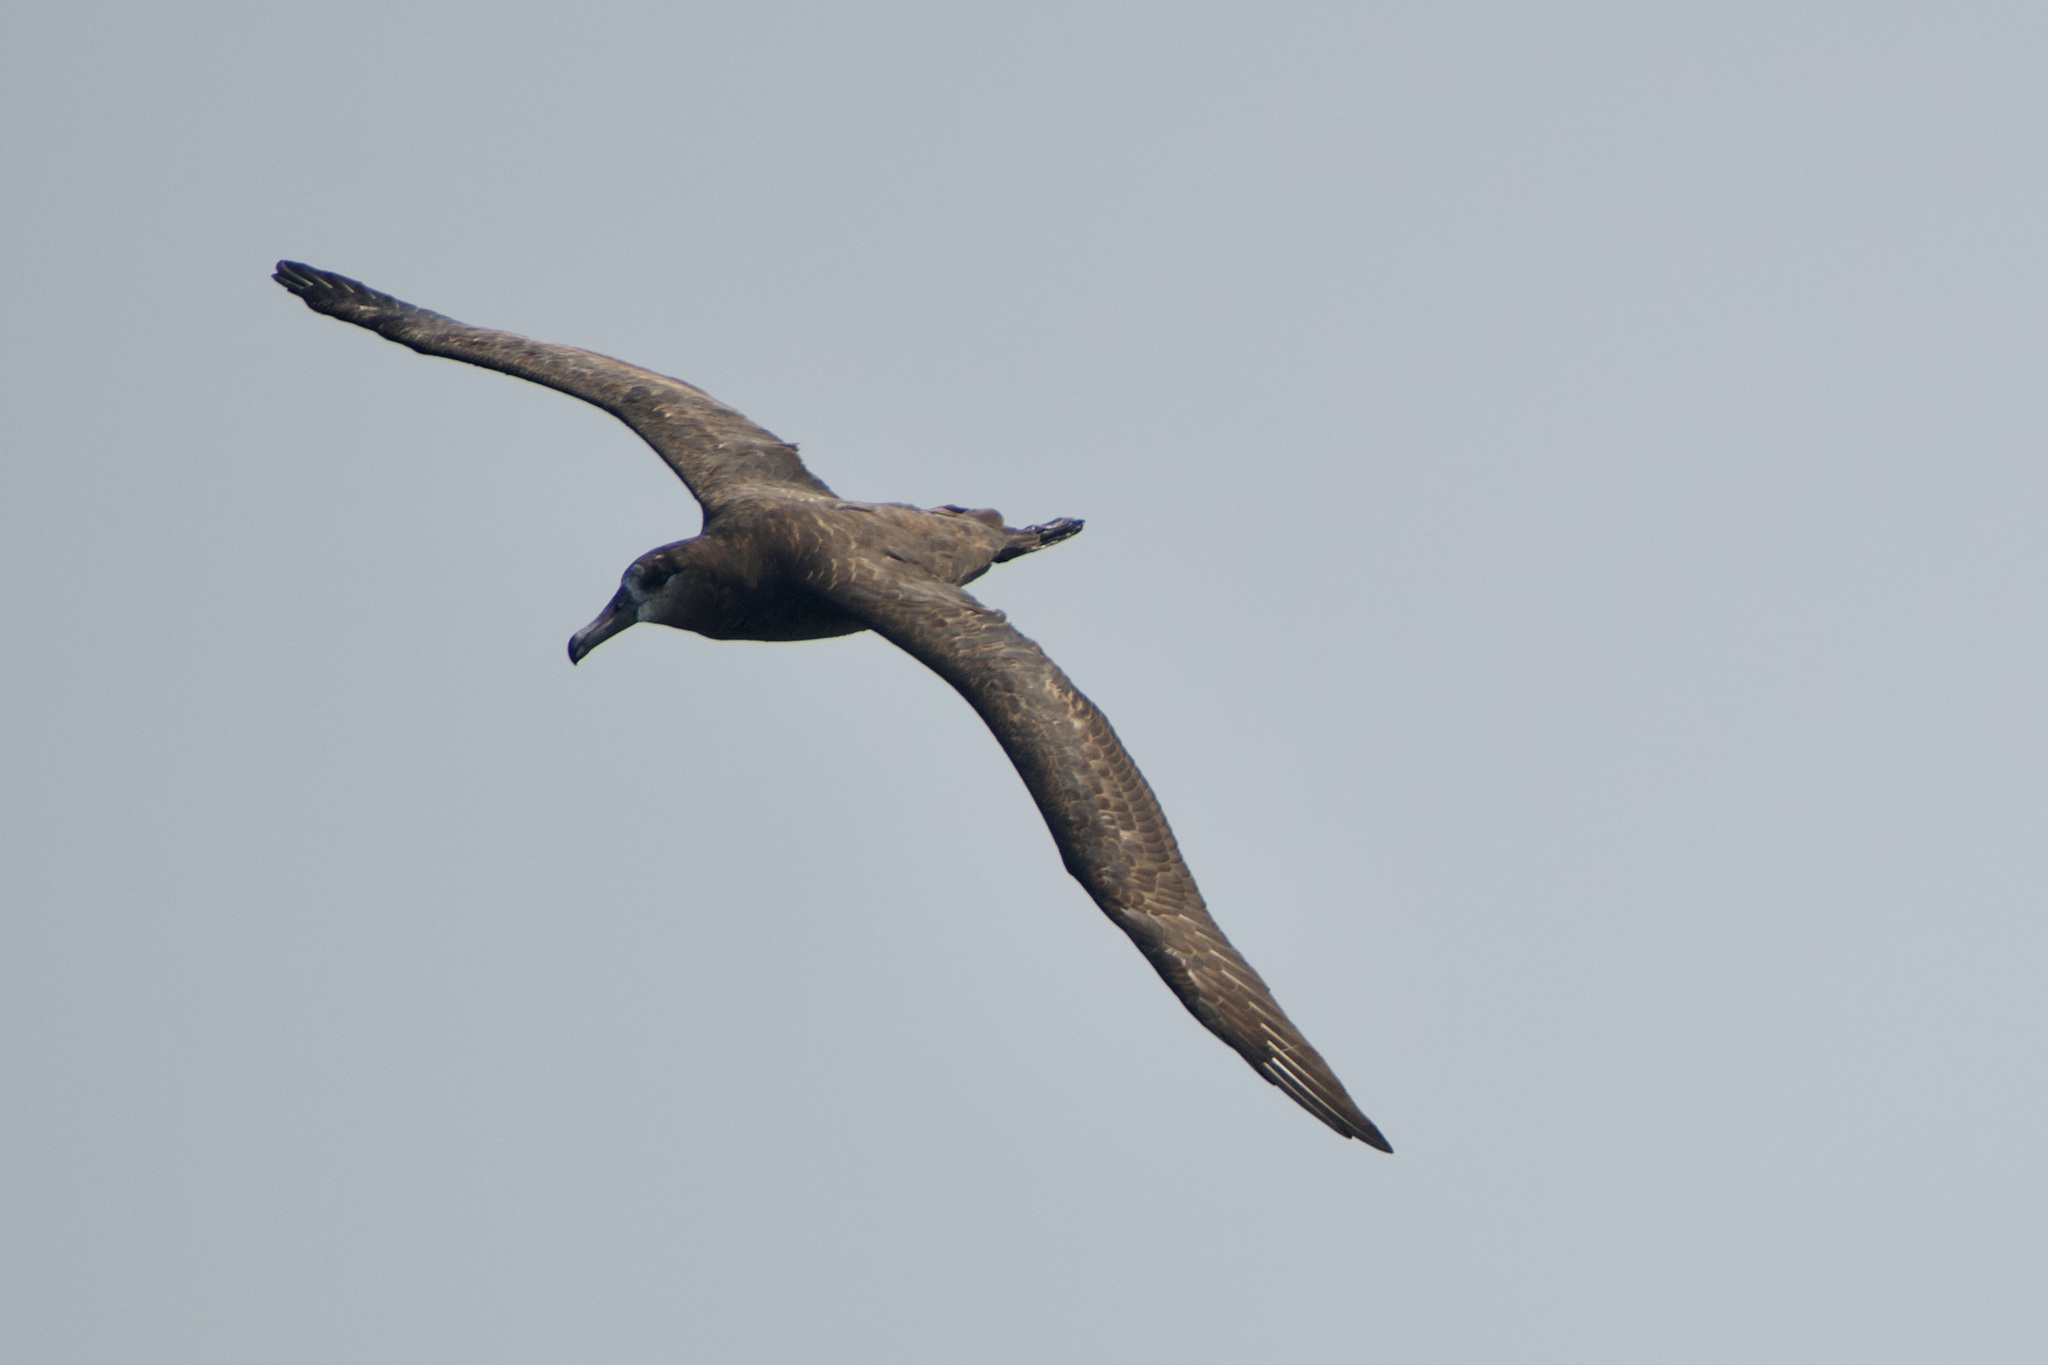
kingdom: Animalia
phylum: Chordata
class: Aves
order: Procellariiformes
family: Diomedeidae
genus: Phoebastria
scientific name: Phoebastria nigripes
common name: Black-footed albatross
